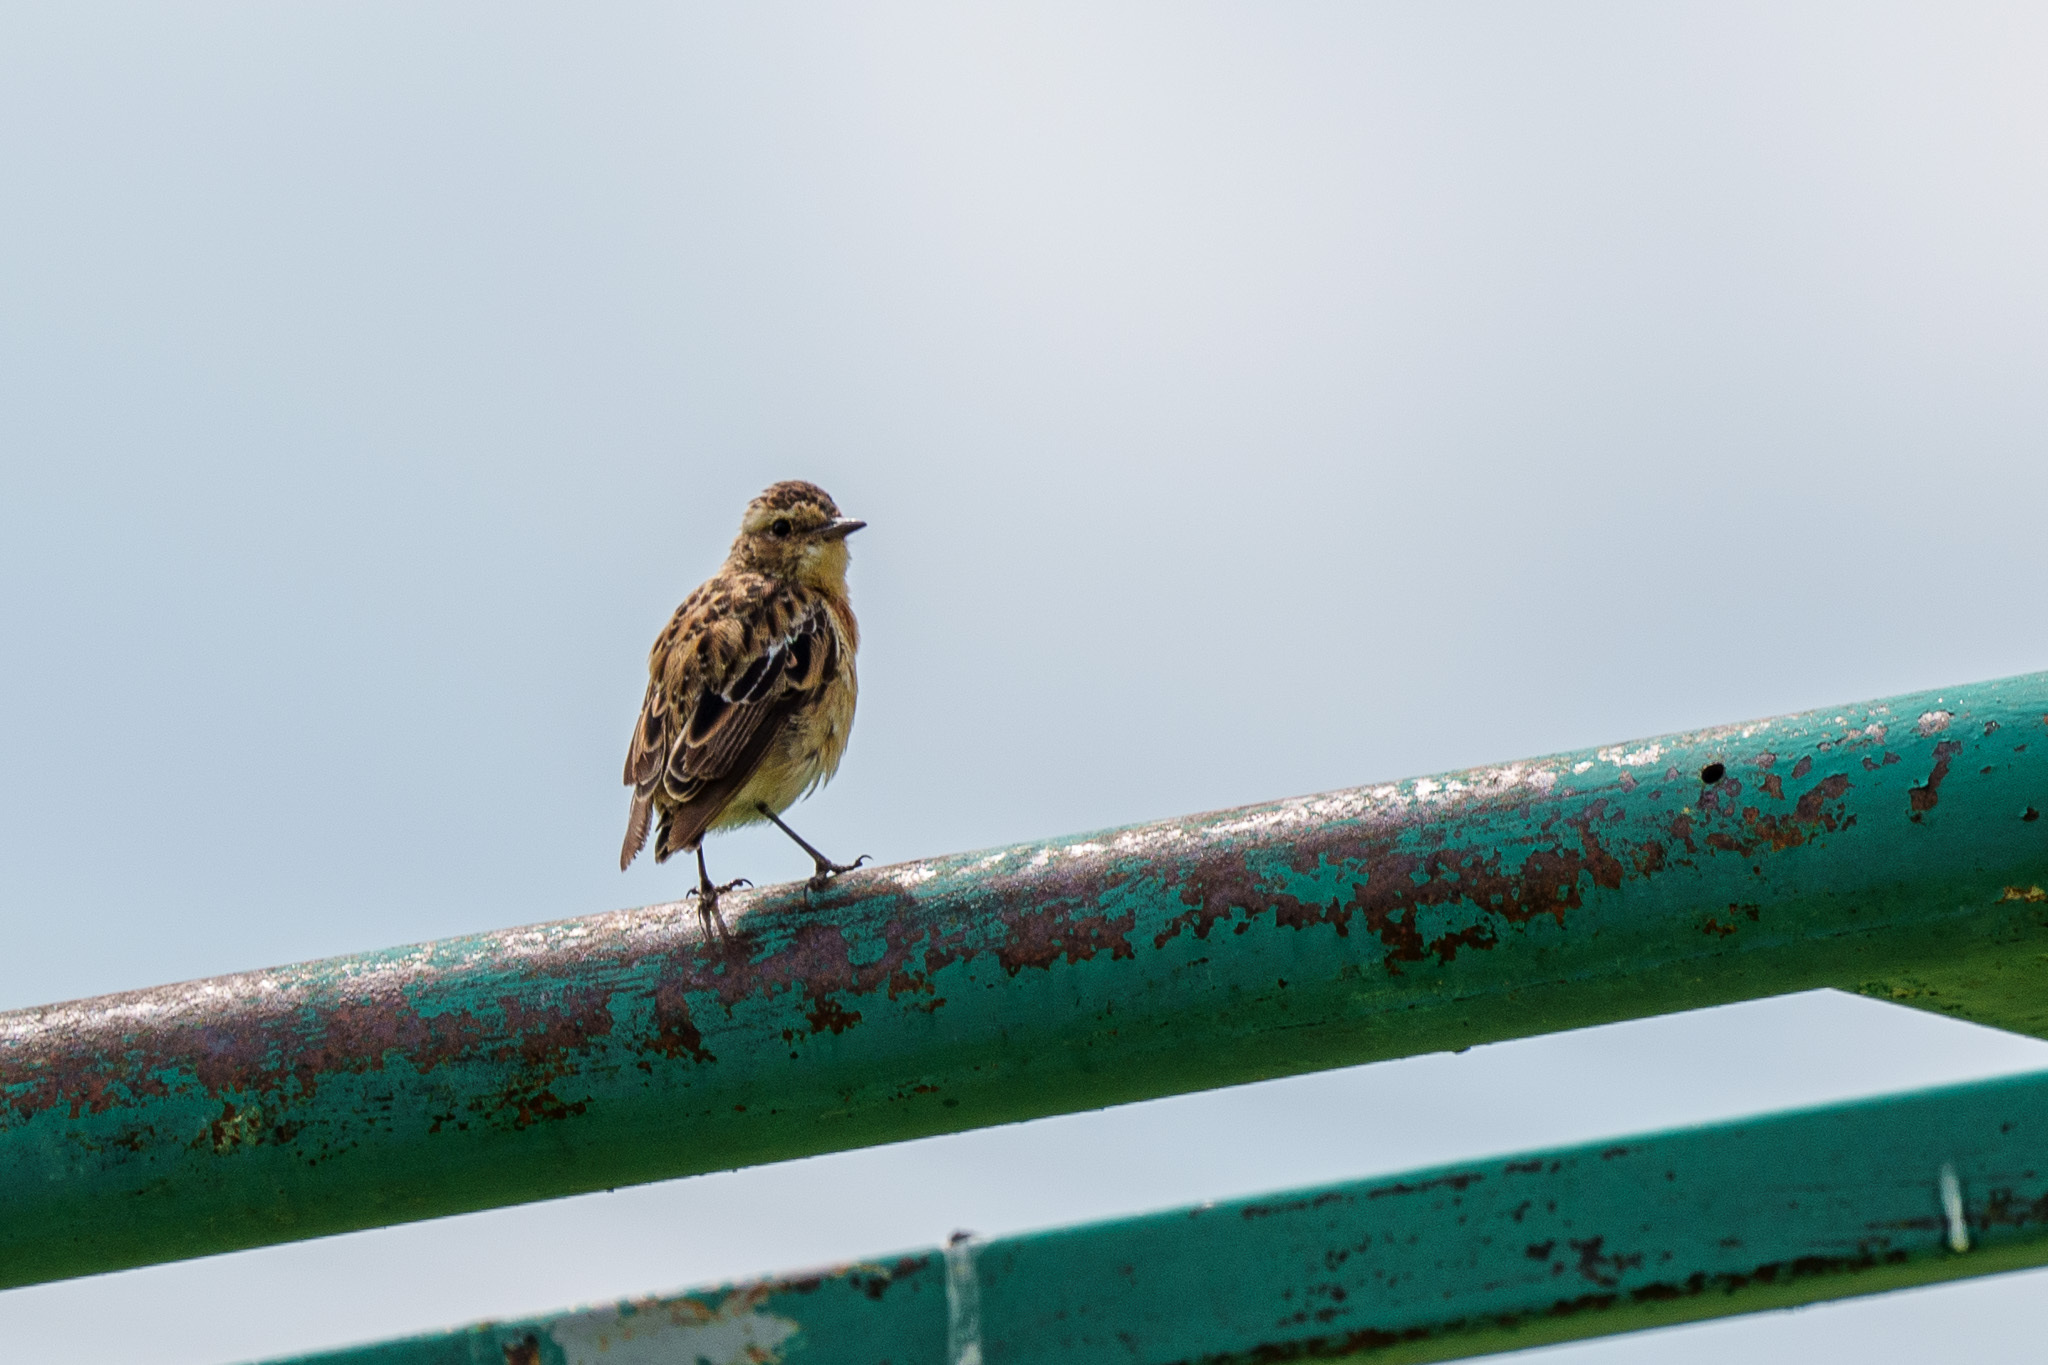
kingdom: Animalia
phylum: Chordata
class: Aves
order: Passeriformes
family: Muscicapidae
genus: Saxicola
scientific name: Saxicola rubetra
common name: Whinchat
